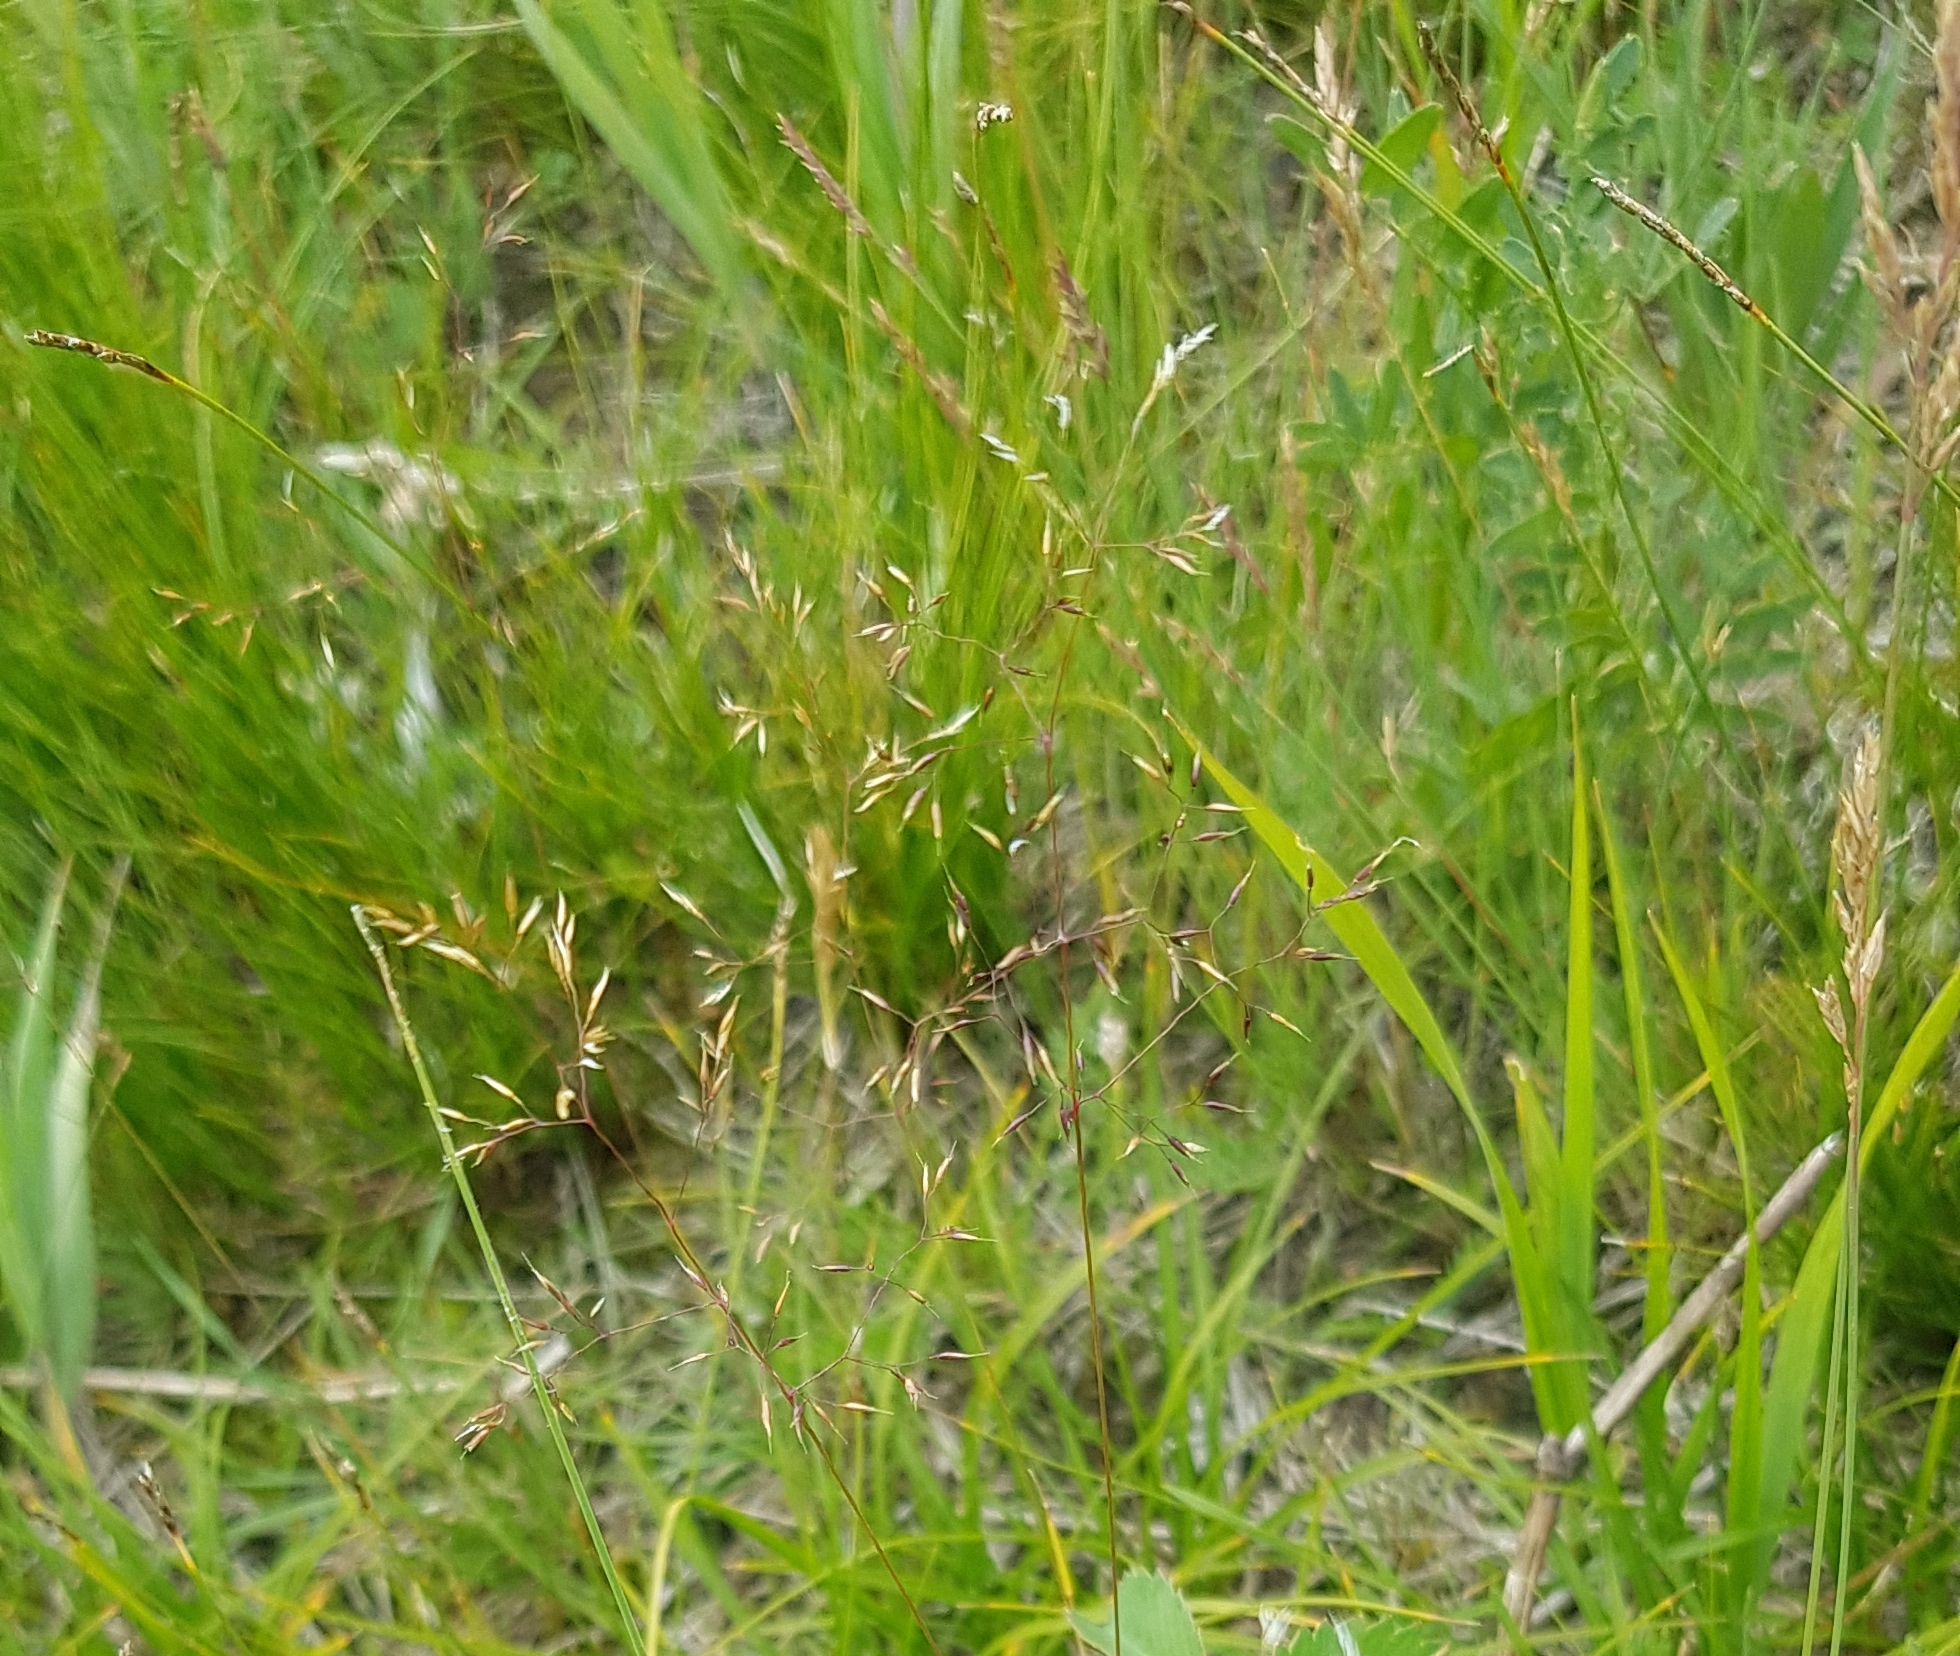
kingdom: Plantae
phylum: Tracheophyta
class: Liliopsida
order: Poales
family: Poaceae
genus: Deschampsia
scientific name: Deschampsia cespitosa
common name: Tufted hair-grass
